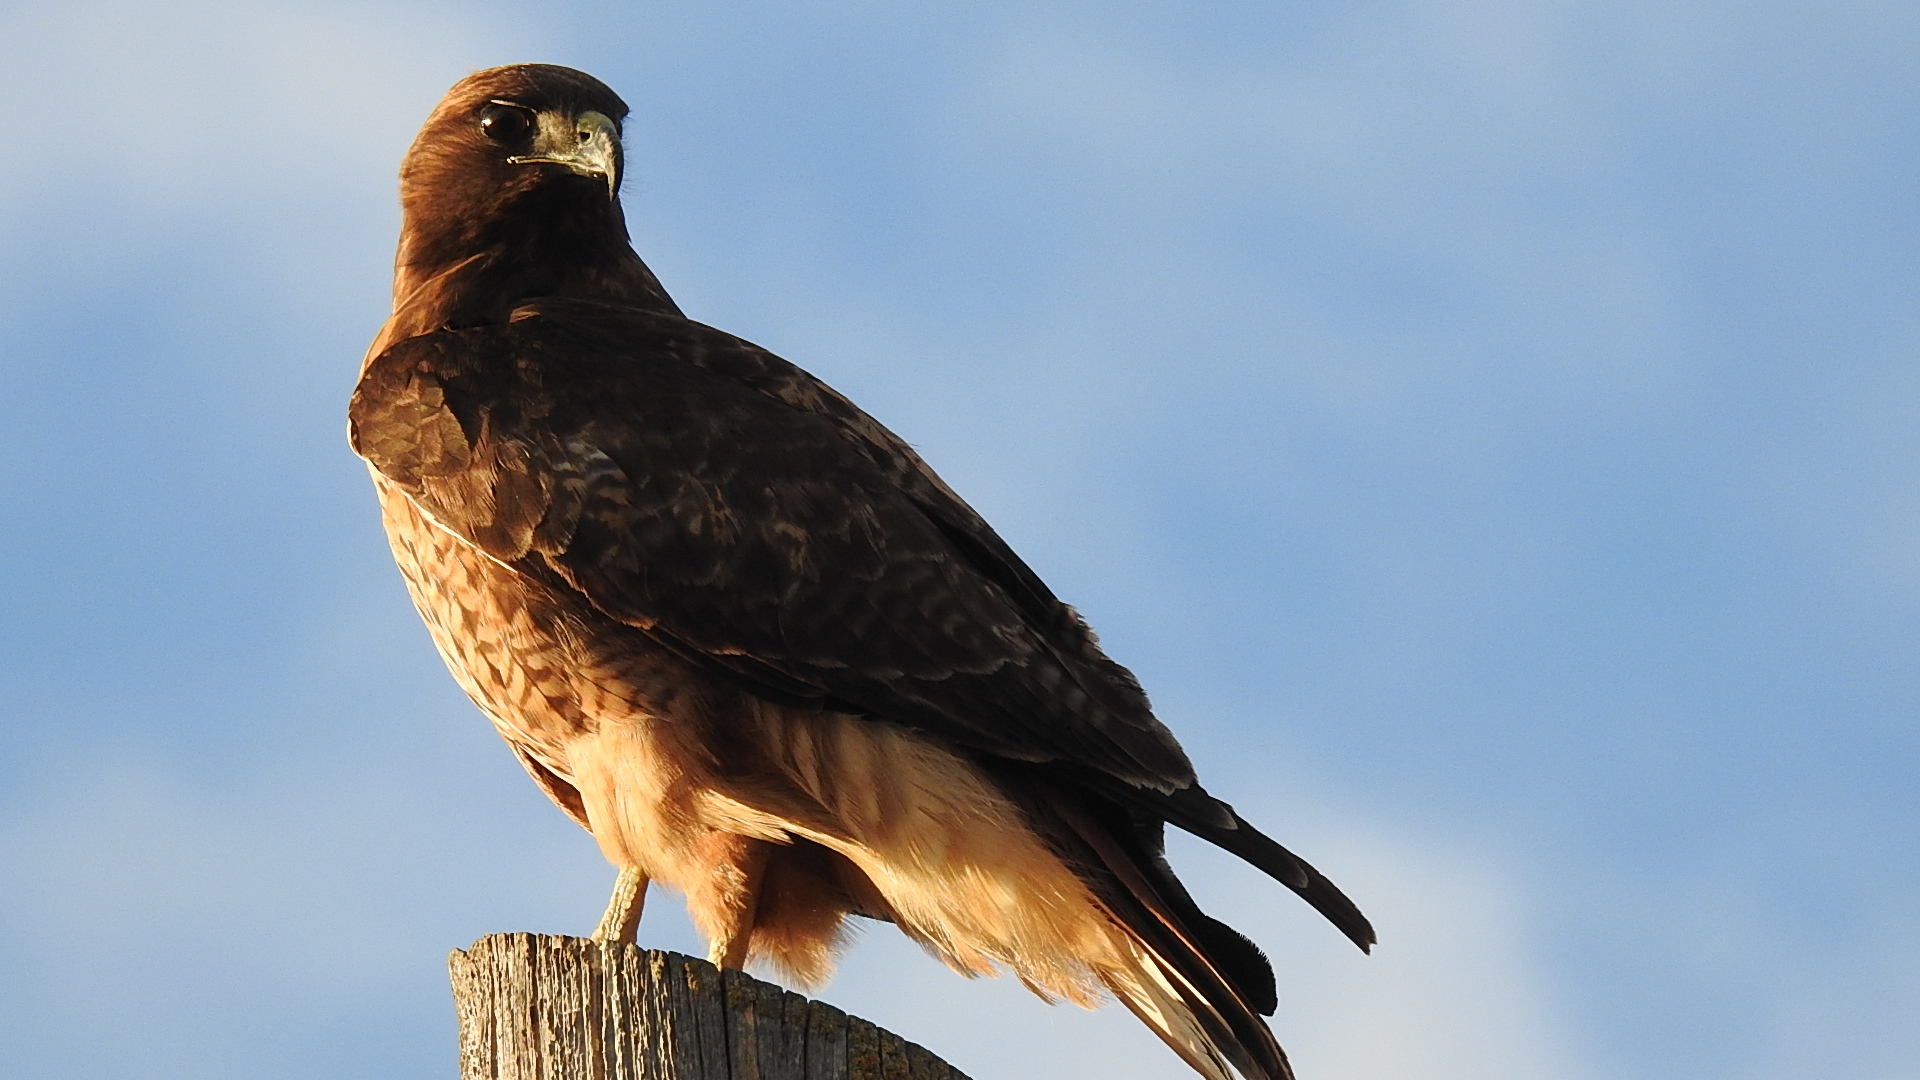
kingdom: Animalia
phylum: Chordata
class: Aves
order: Accipitriformes
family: Accipitridae
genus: Buteo
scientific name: Buteo jamaicensis
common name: Red-tailed hawk
